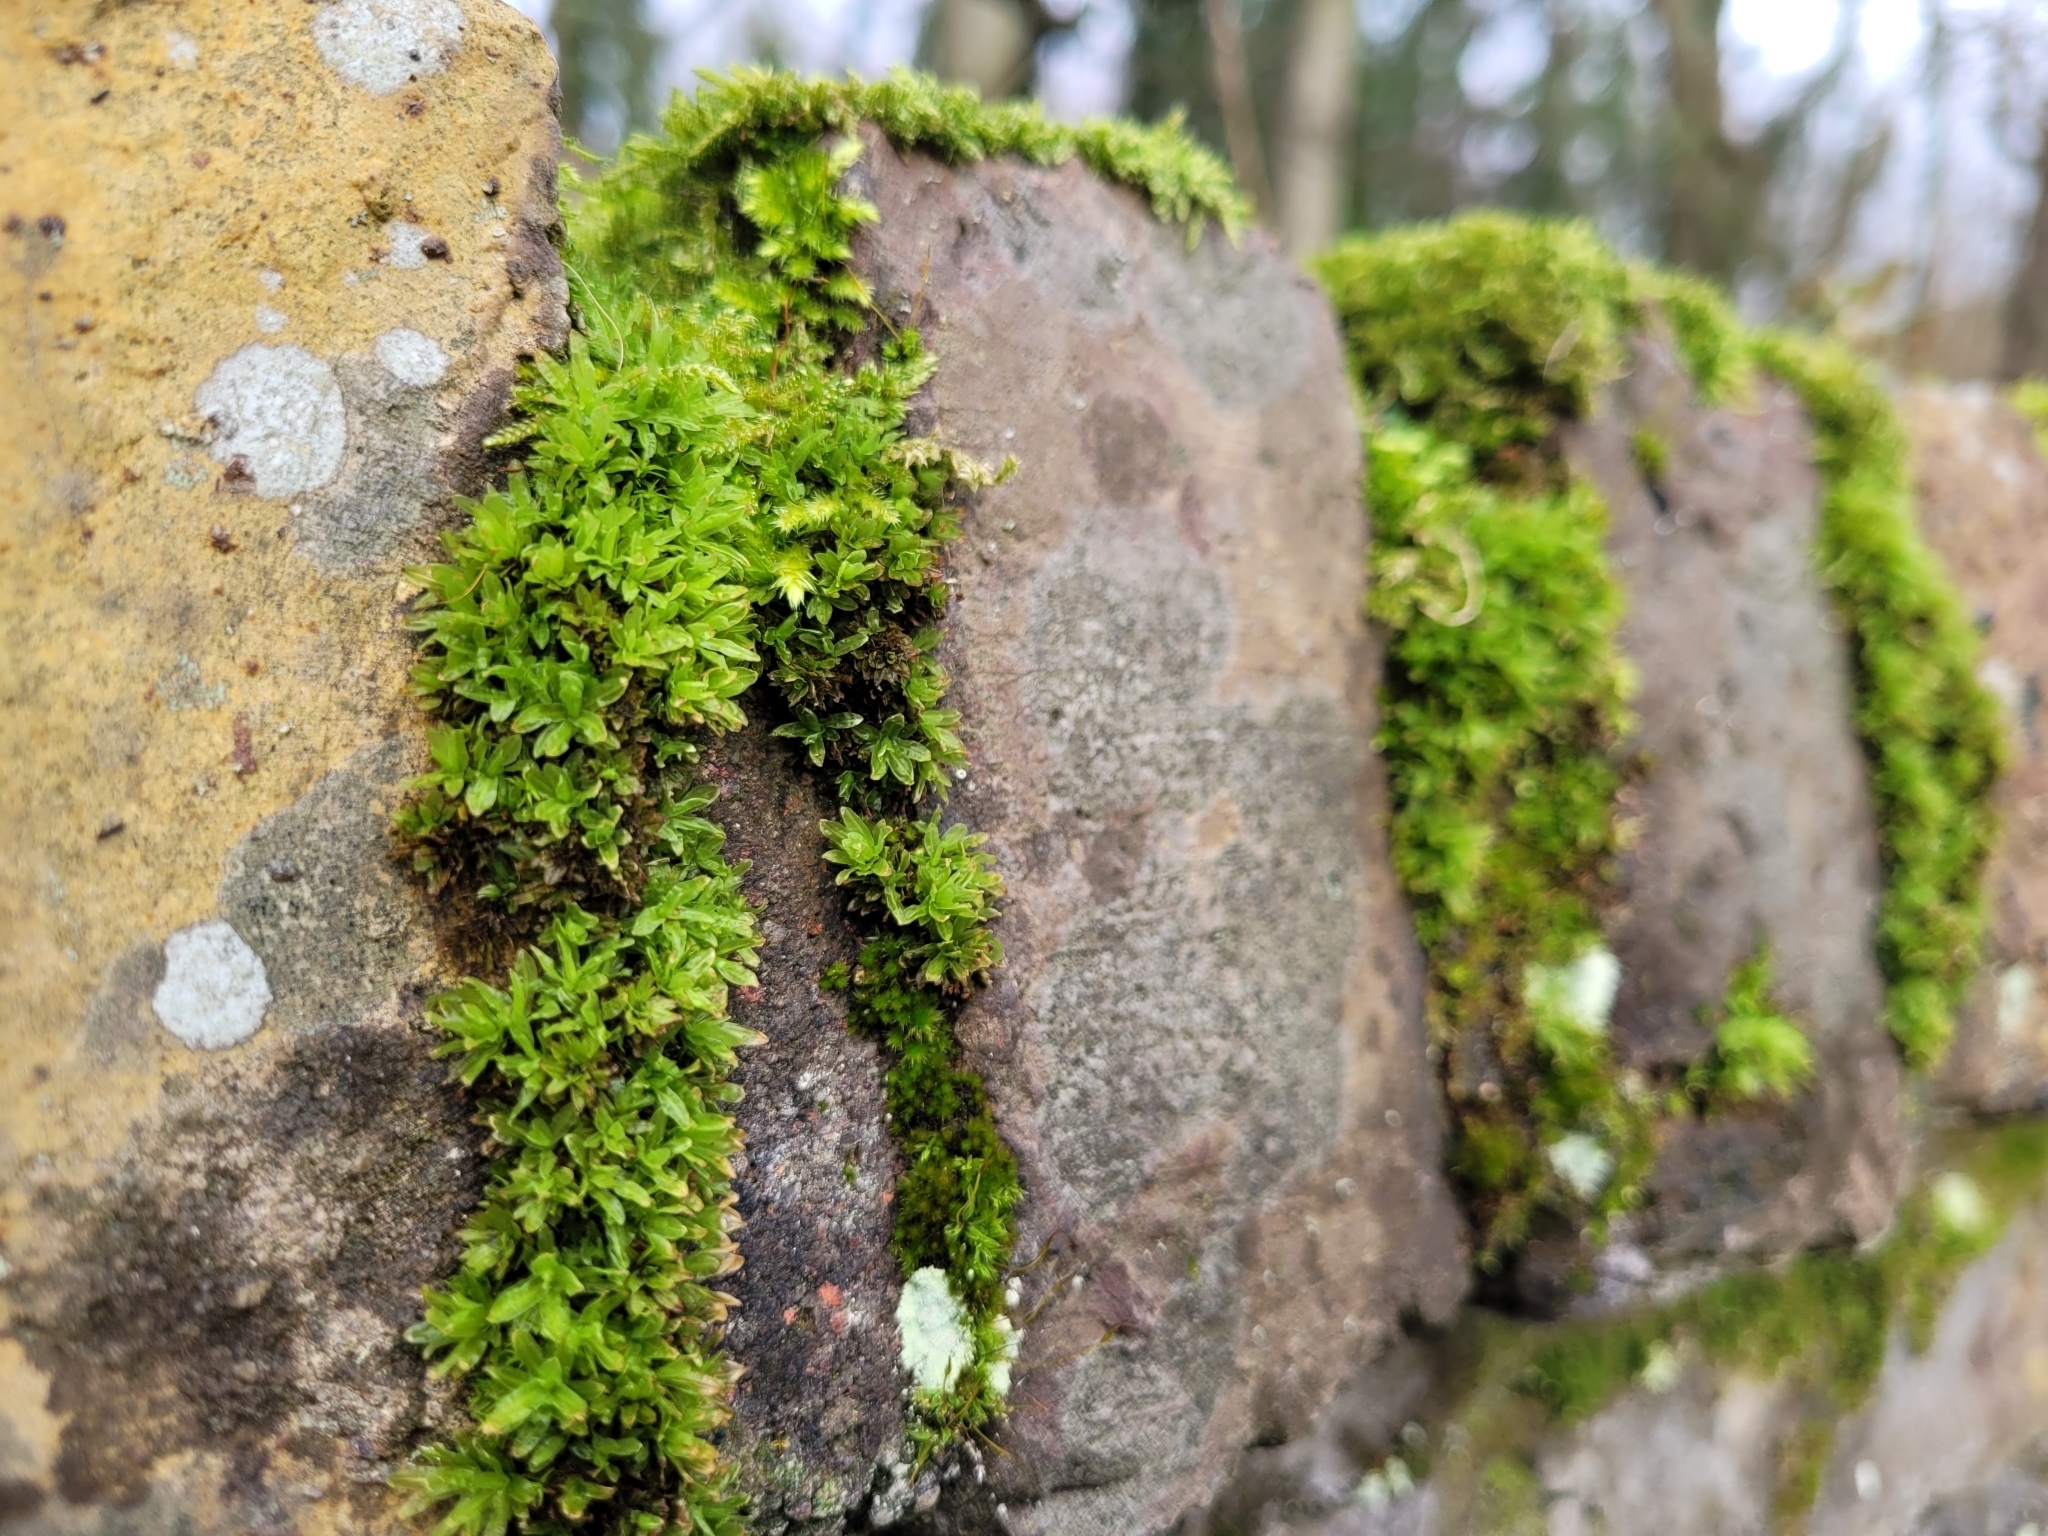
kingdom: Plantae
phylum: Bryophyta
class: Bryopsida
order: Encalyptales
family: Encalyptaceae
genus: Encalypta
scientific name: Encalypta streptocarpa
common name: Spiral extinguisher-moss
